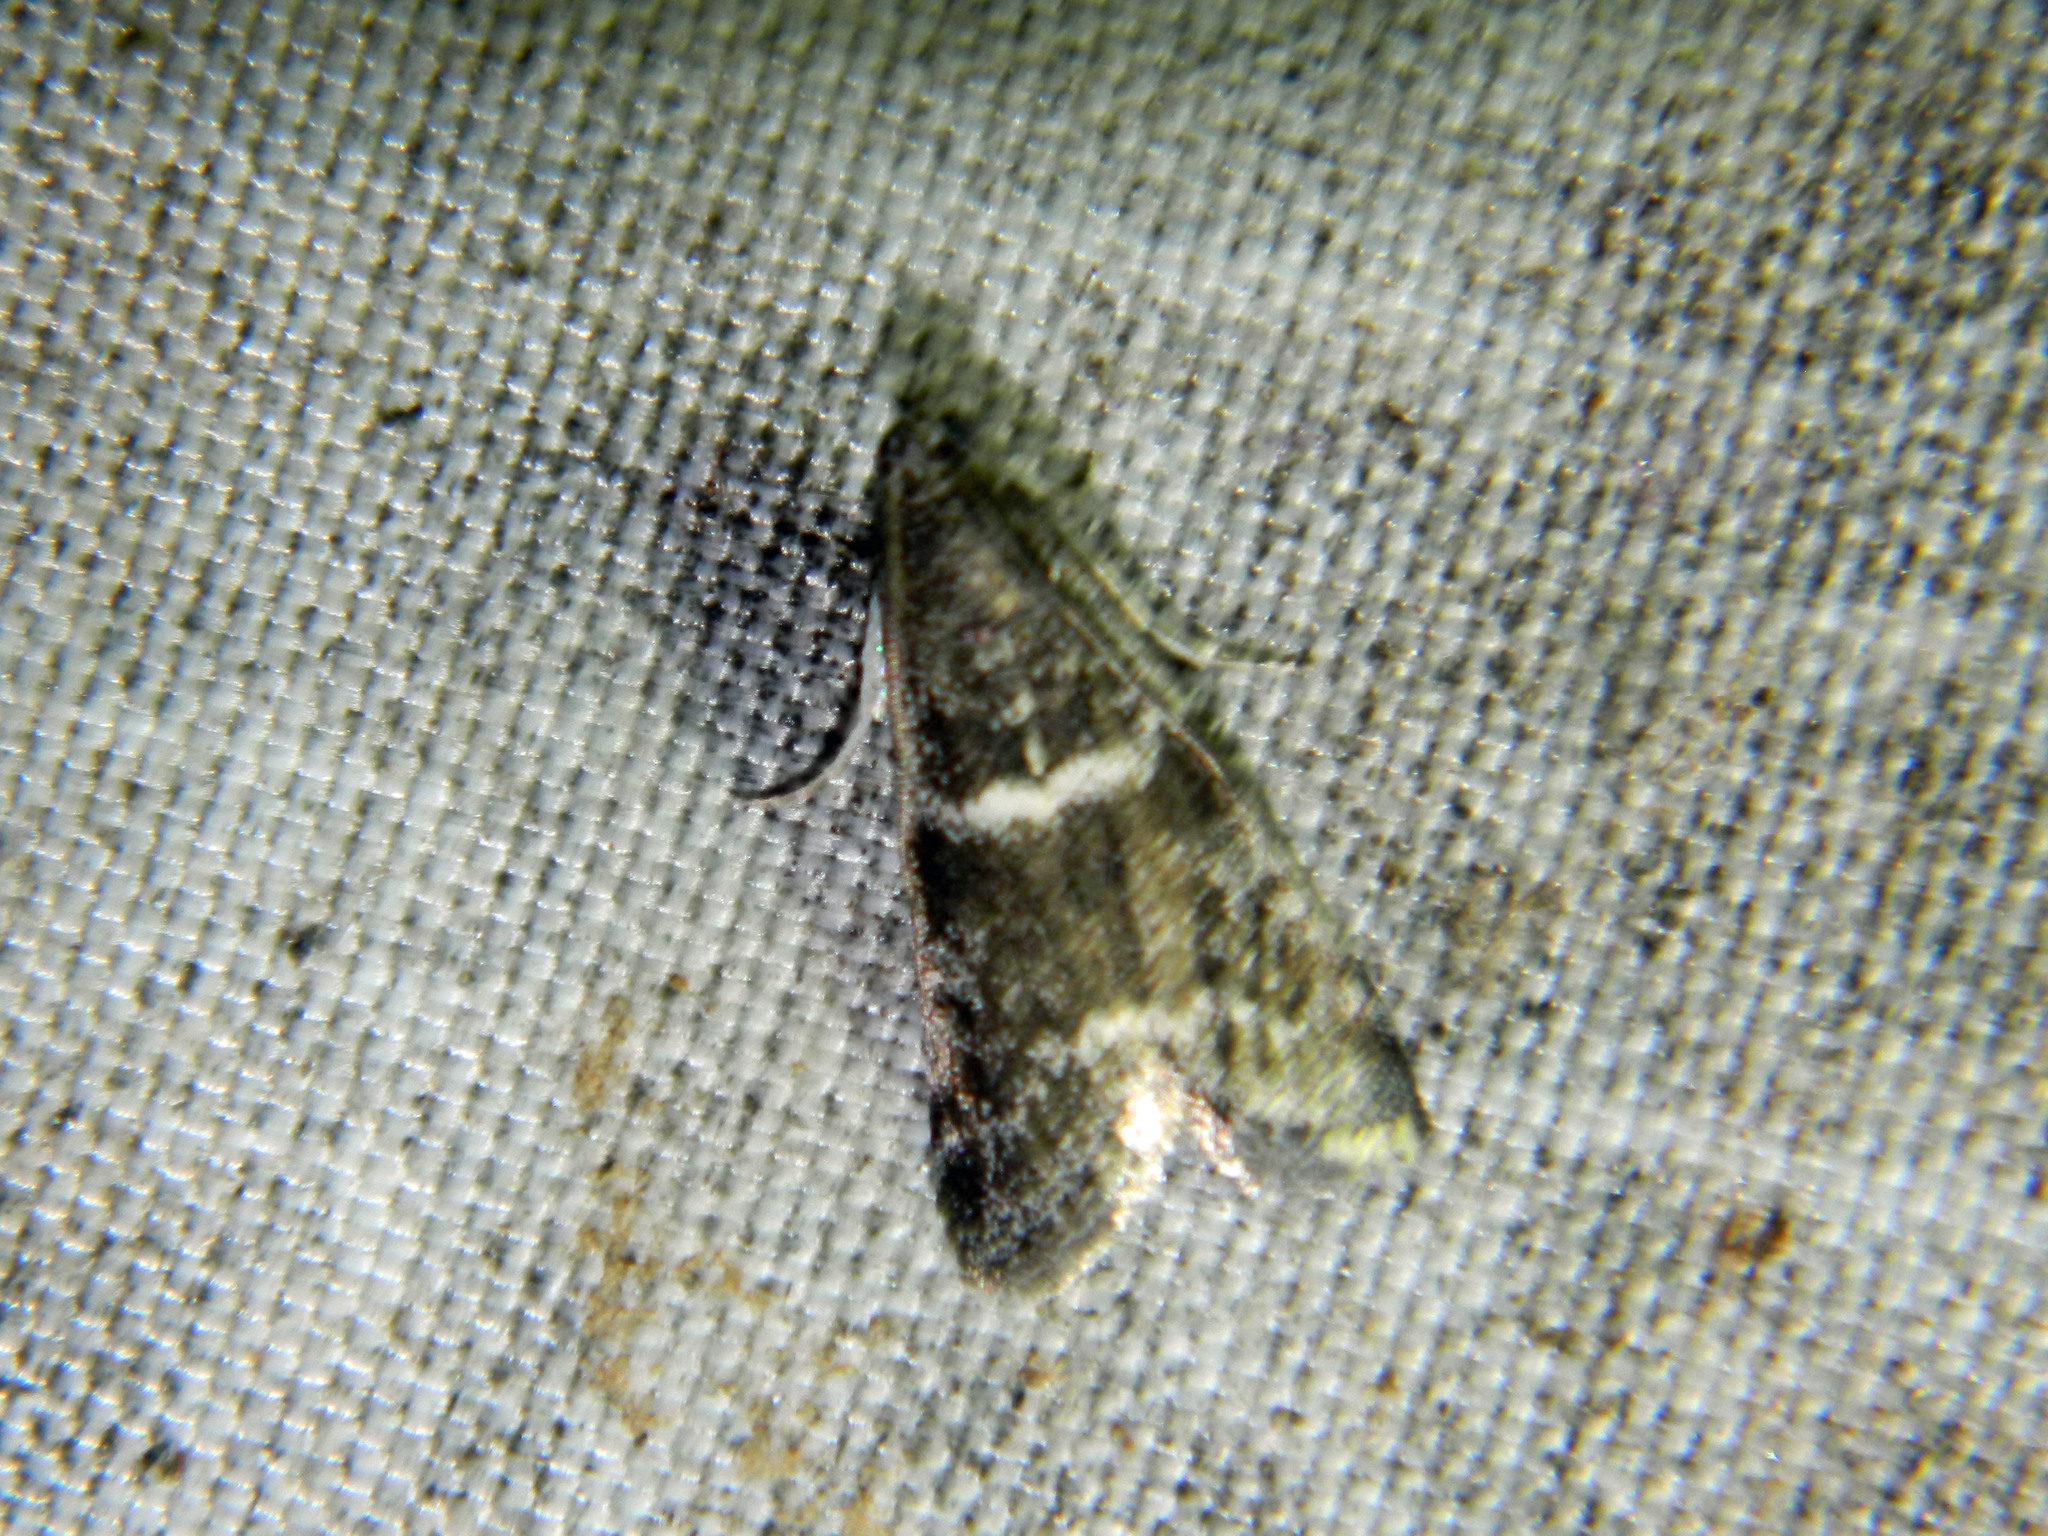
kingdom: Animalia
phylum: Arthropoda
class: Insecta
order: Lepidoptera
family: Pyralidae
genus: Apomyelois
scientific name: Apomyelois bistriatella
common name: Heath knot-horn
